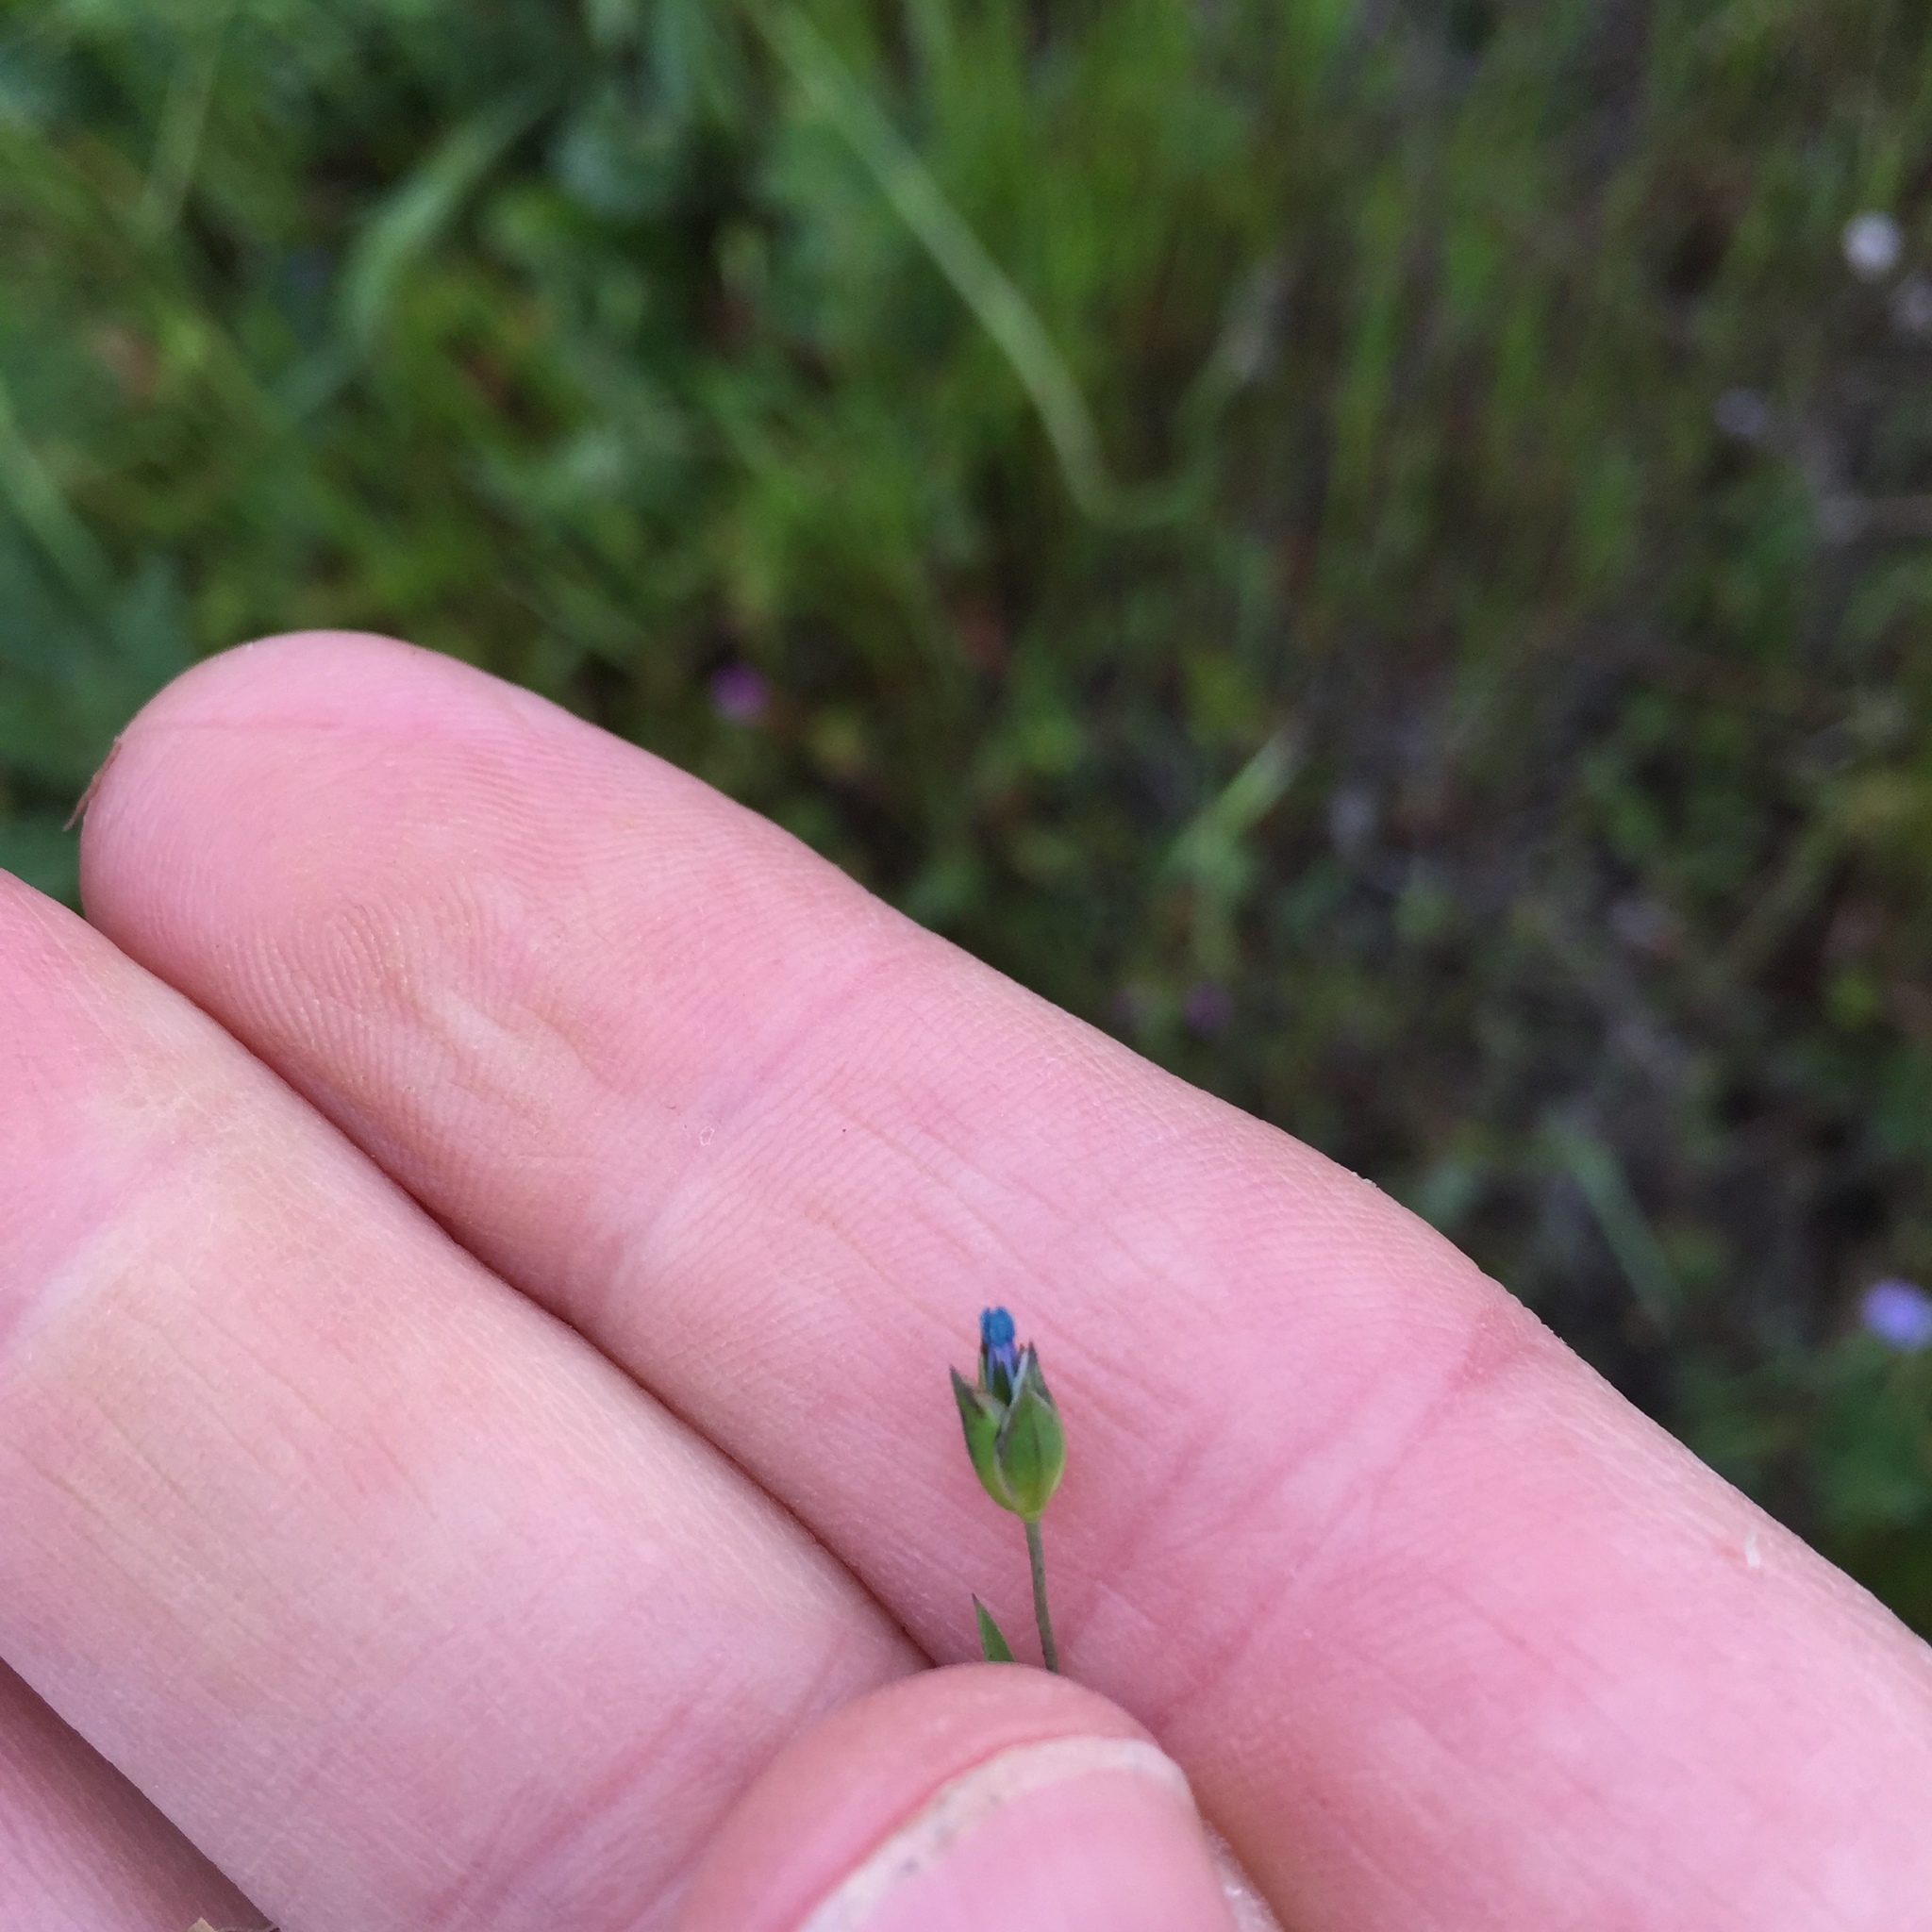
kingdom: Plantae
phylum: Tracheophyta
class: Magnoliopsida
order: Malpighiales
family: Linaceae
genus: Linum
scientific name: Linum bienne
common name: Pale flax
